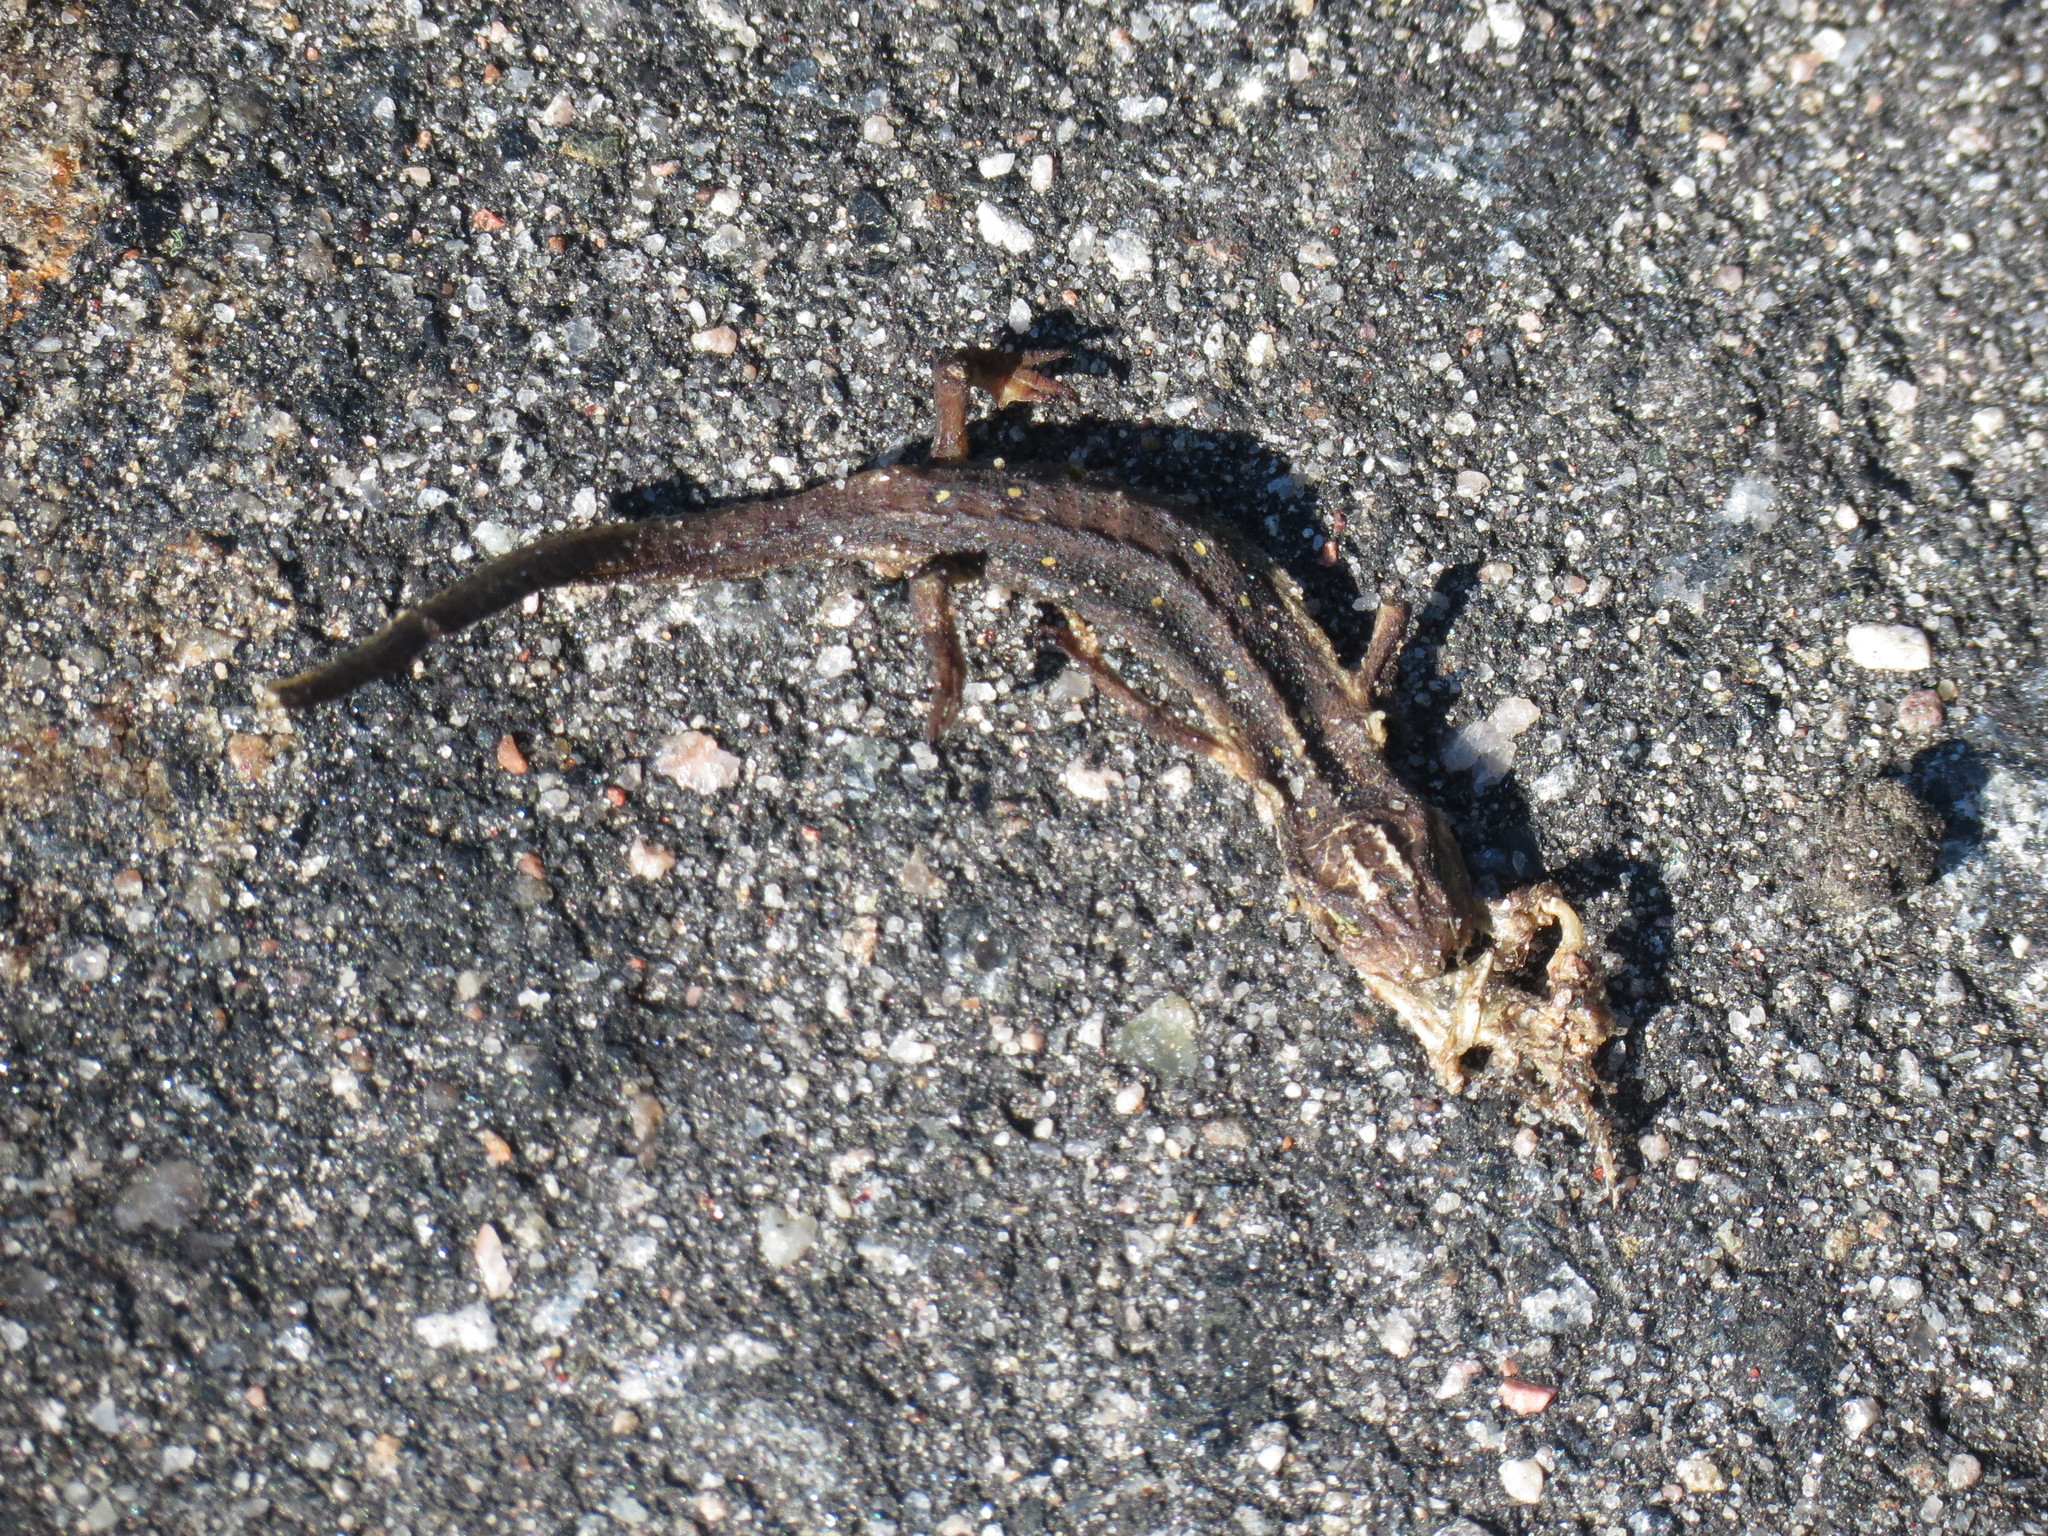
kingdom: Animalia
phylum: Chordata
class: Amphibia
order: Caudata
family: Salamandridae
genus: Notophthalmus
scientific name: Notophthalmus viridescens
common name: Eastern newt
